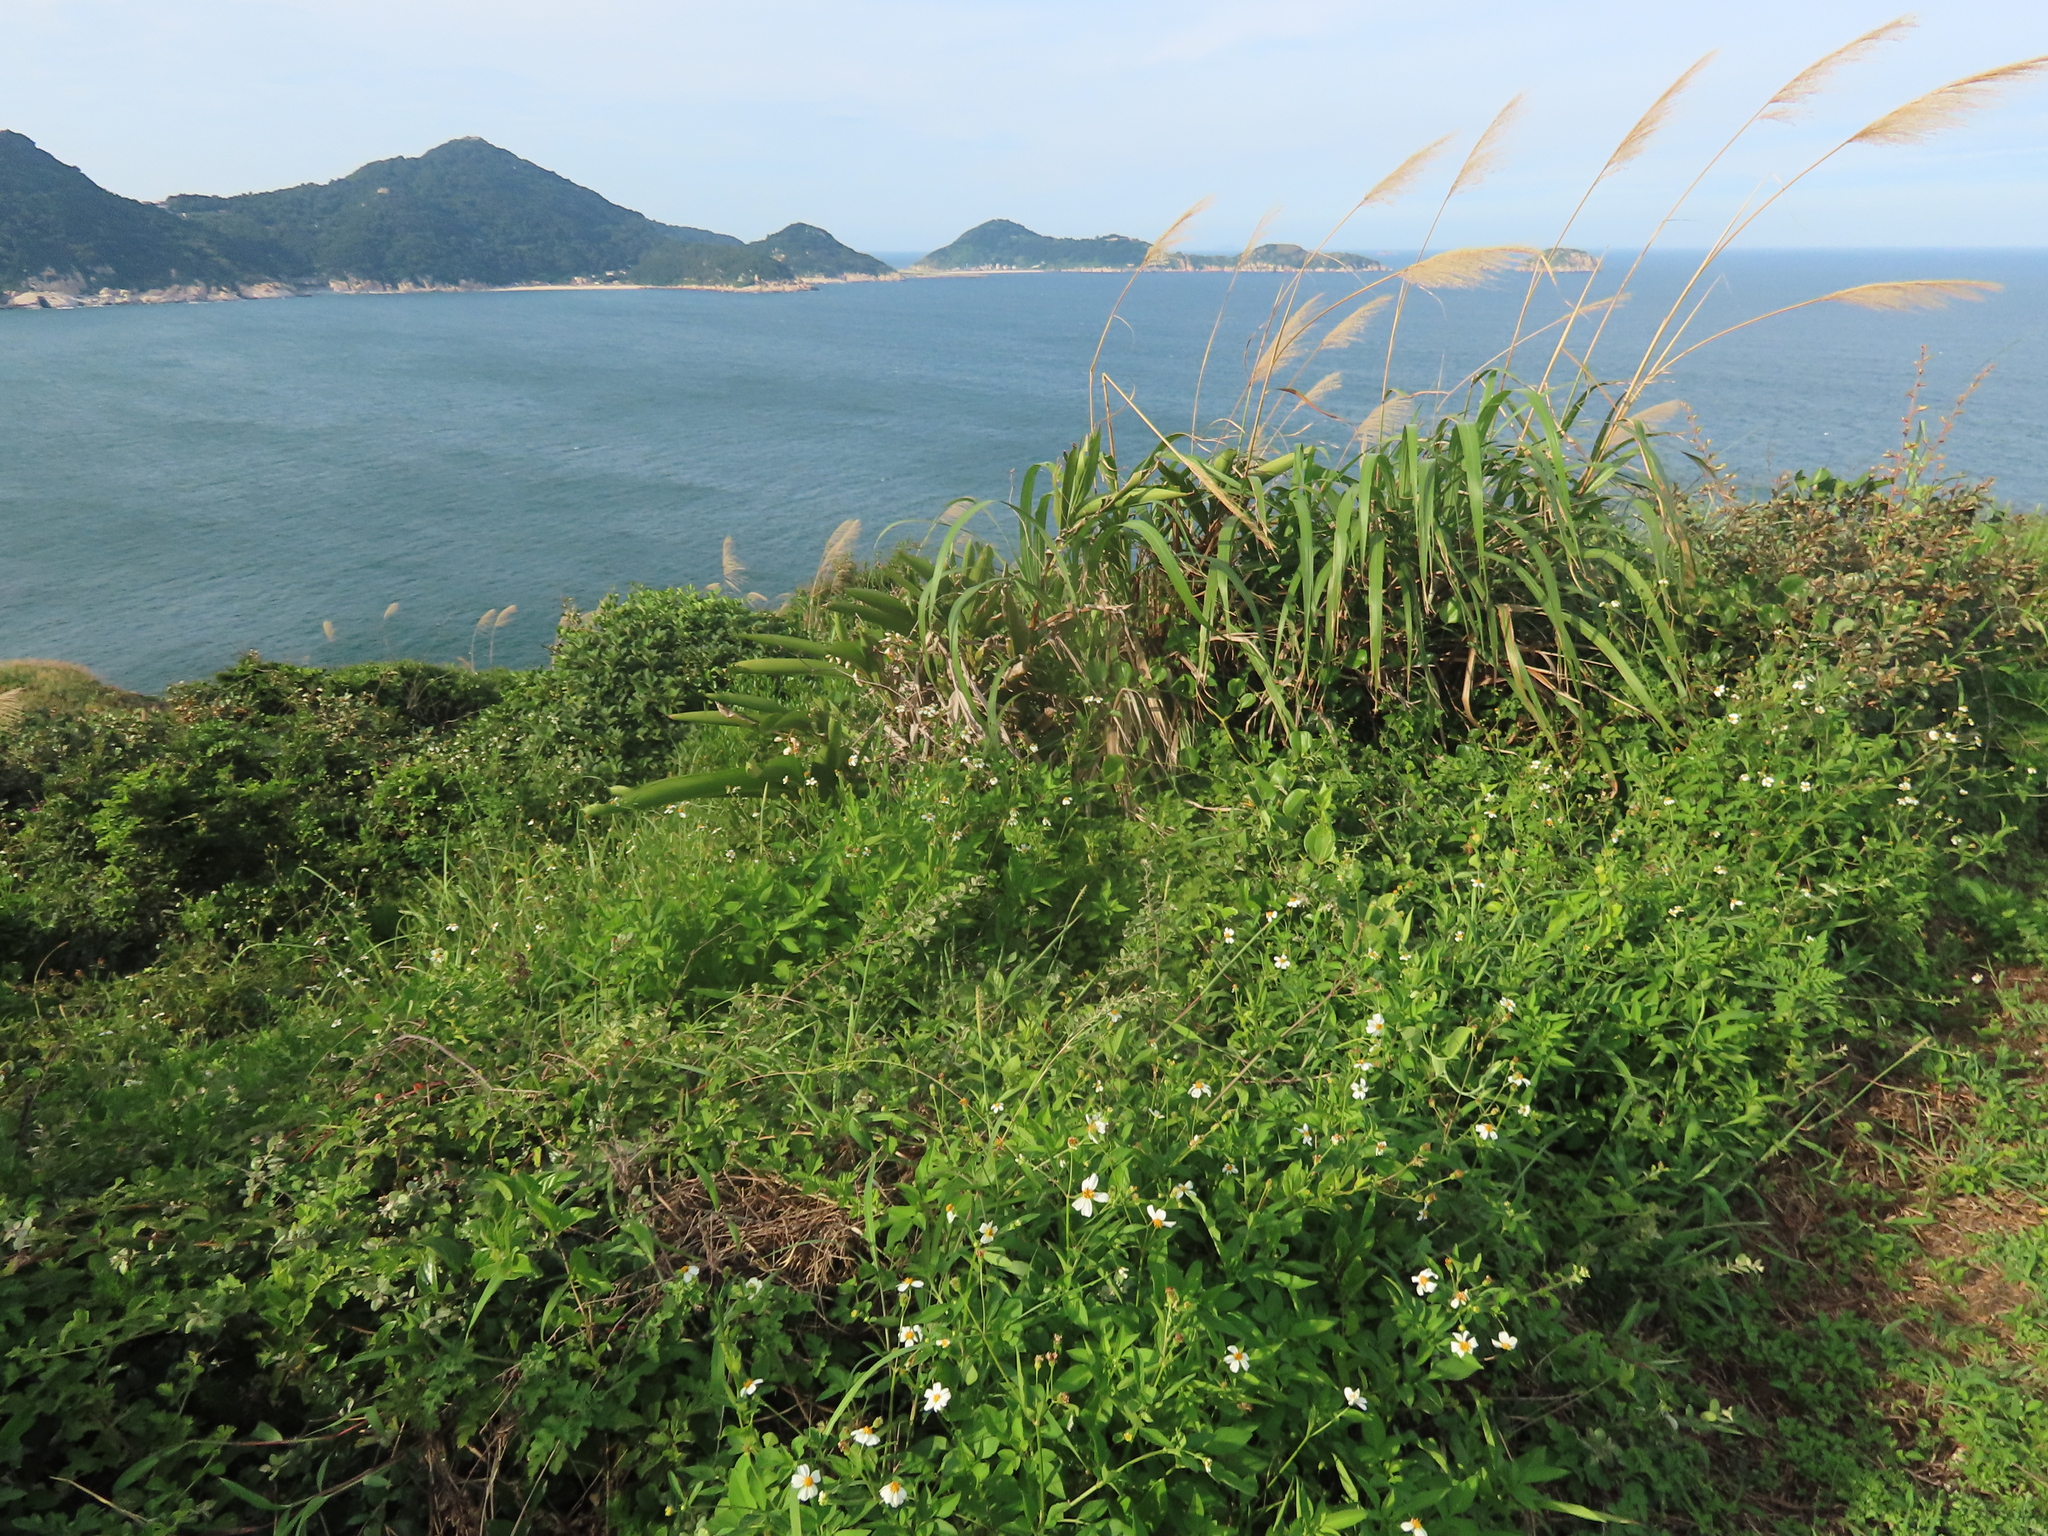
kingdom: Plantae
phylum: Tracheophyta
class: Liliopsida
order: Poales
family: Poaceae
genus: Apluda
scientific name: Apluda mutica
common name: Mauritian grass
